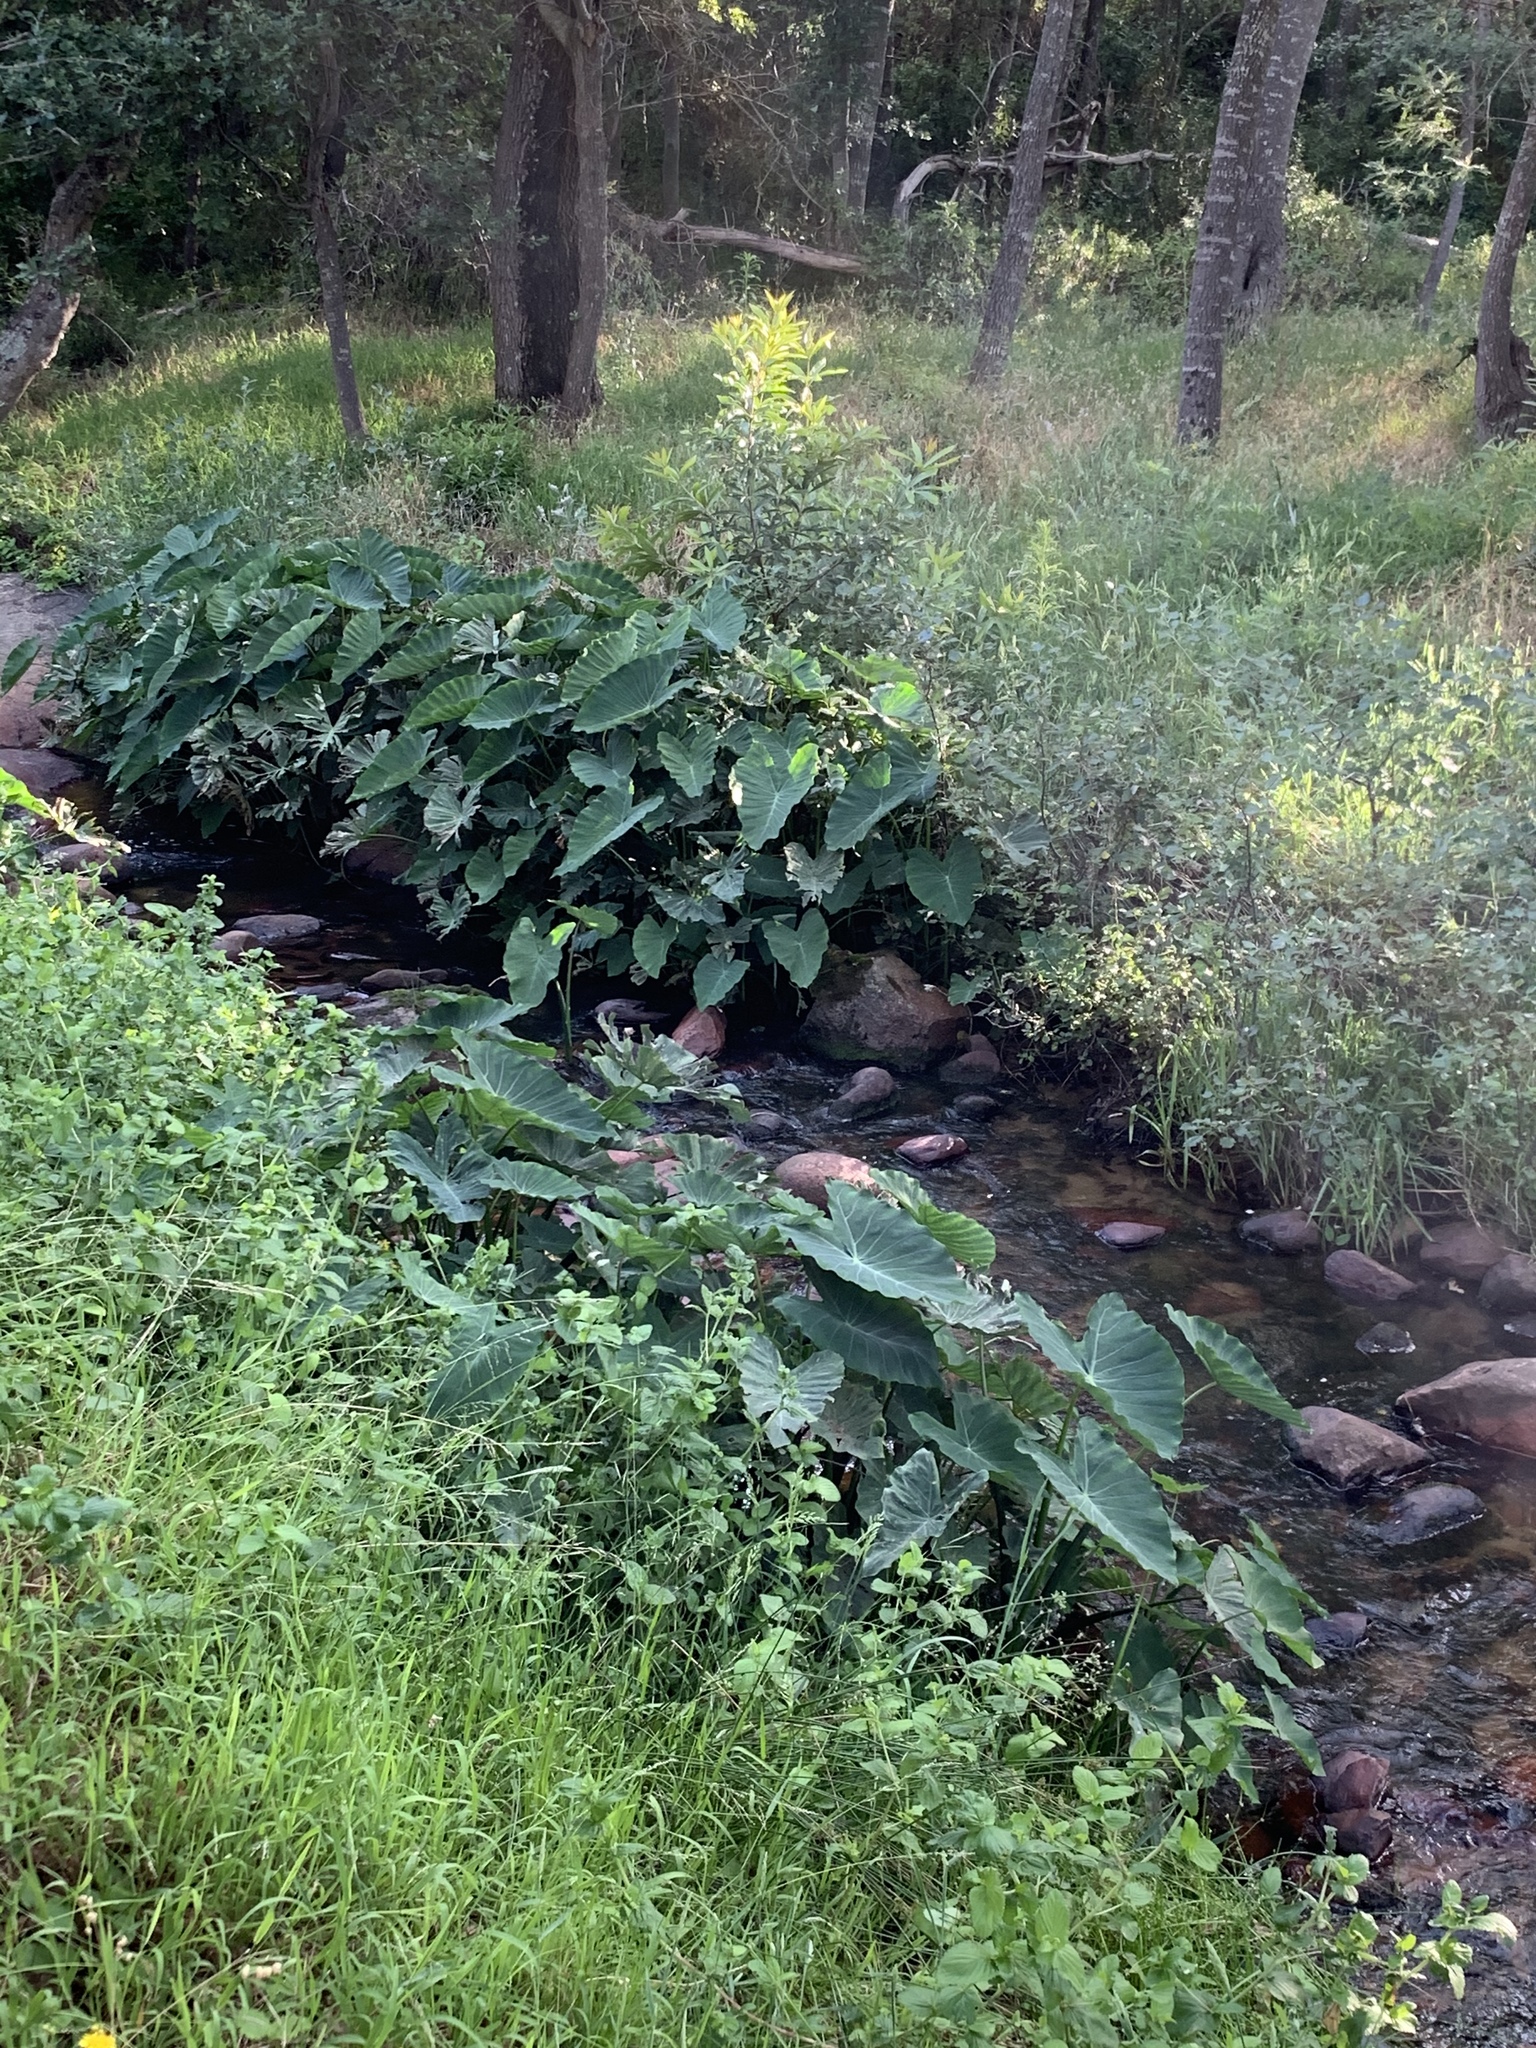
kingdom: Plantae
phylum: Tracheophyta
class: Liliopsida
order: Alismatales
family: Araceae
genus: Colocasia
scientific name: Colocasia esculenta
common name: Taro
